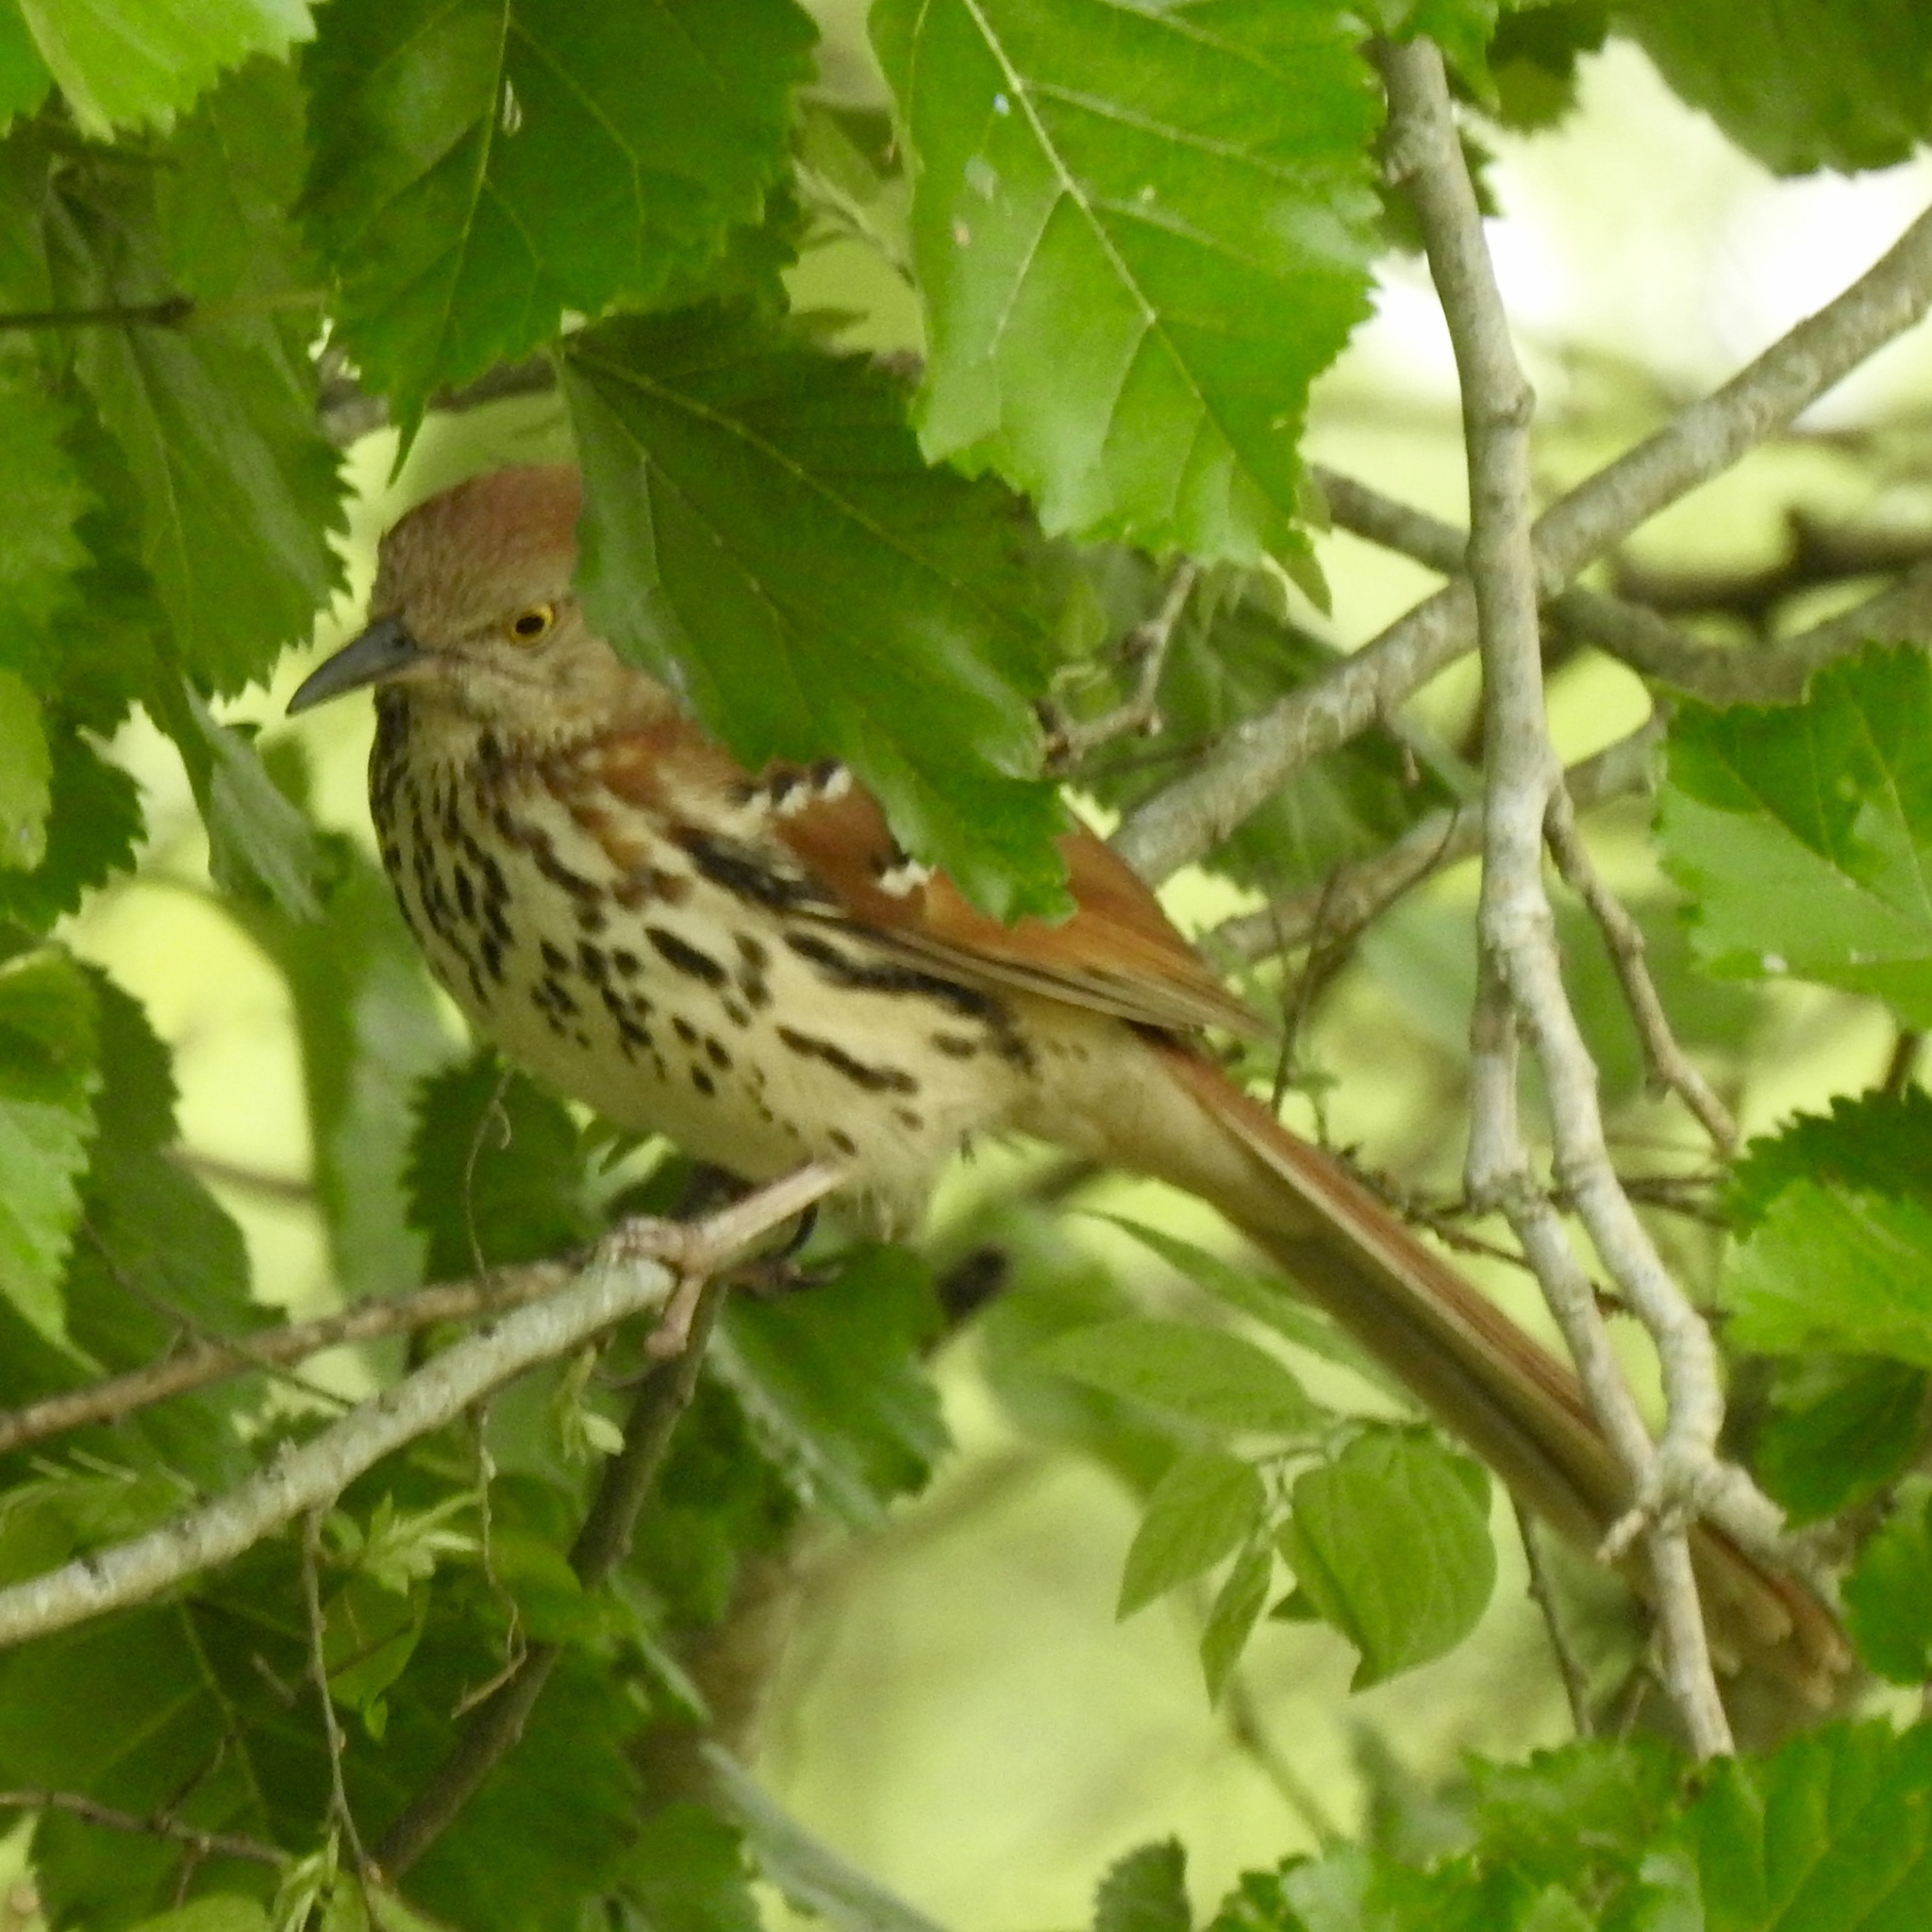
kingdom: Animalia
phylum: Chordata
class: Aves
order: Passeriformes
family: Mimidae
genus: Toxostoma
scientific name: Toxostoma rufum
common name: Brown thrasher
